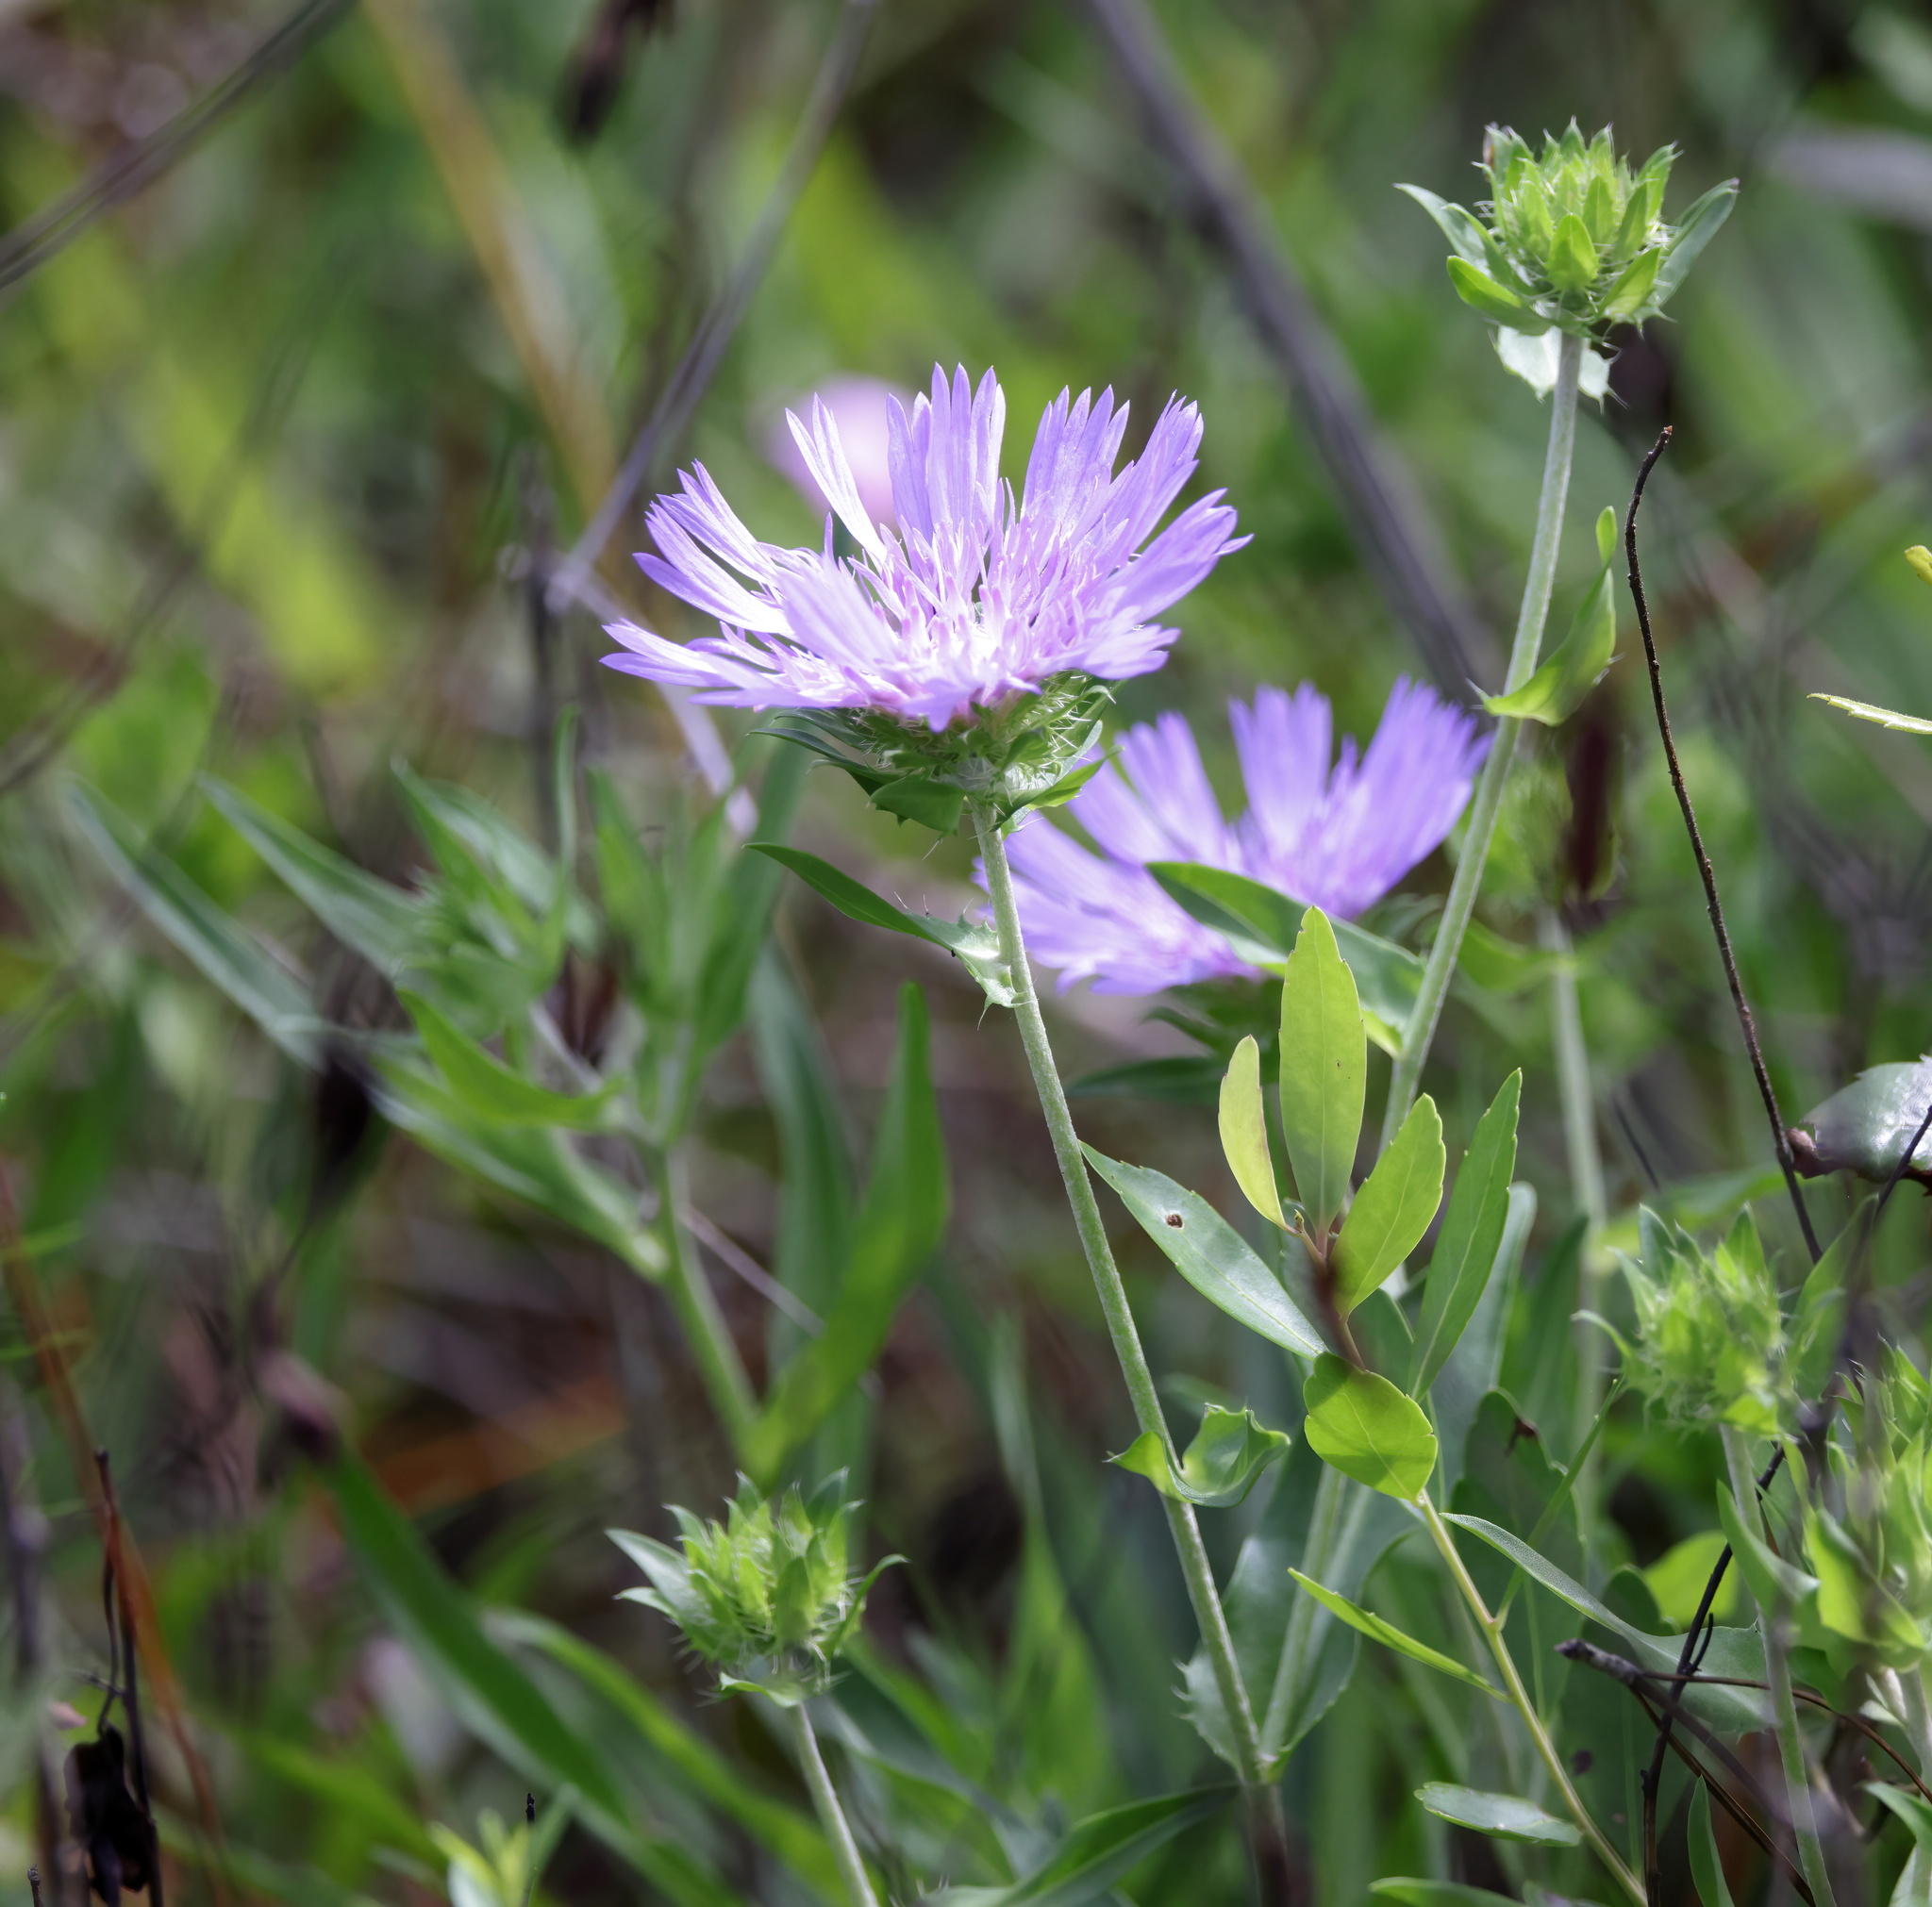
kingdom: Plantae
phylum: Tracheophyta
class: Magnoliopsida
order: Asterales
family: Asteraceae
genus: Stokesia
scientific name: Stokesia laevis
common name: Stokes'-aster
